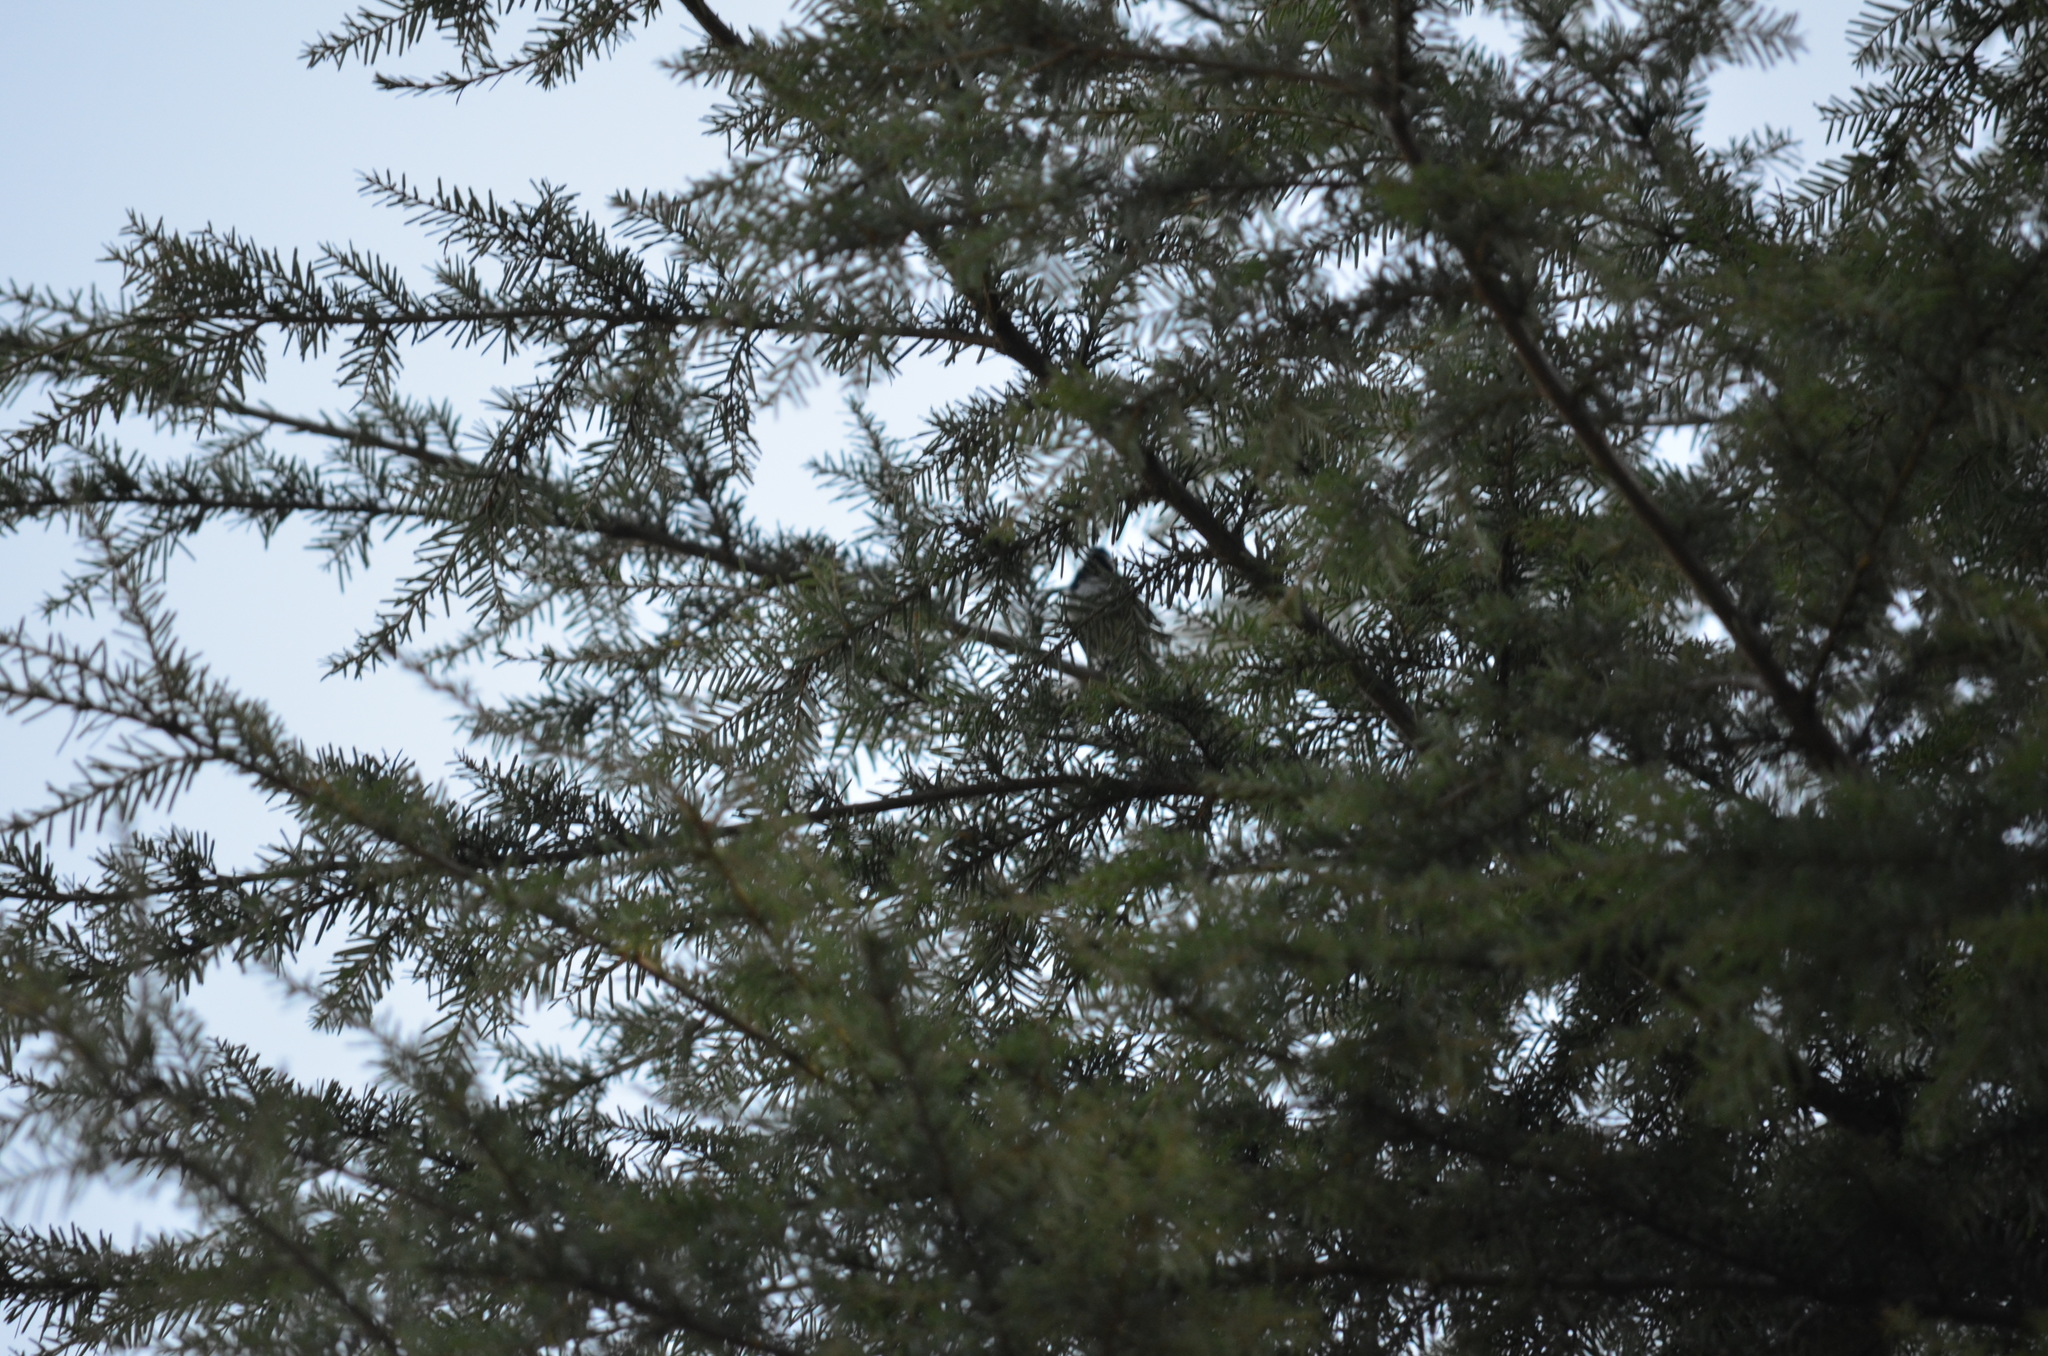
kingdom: Animalia
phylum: Chordata
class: Aves
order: Passeriformes
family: Paridae
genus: Poecile
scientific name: Poecile atricapillus
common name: Black-capped chickadee
